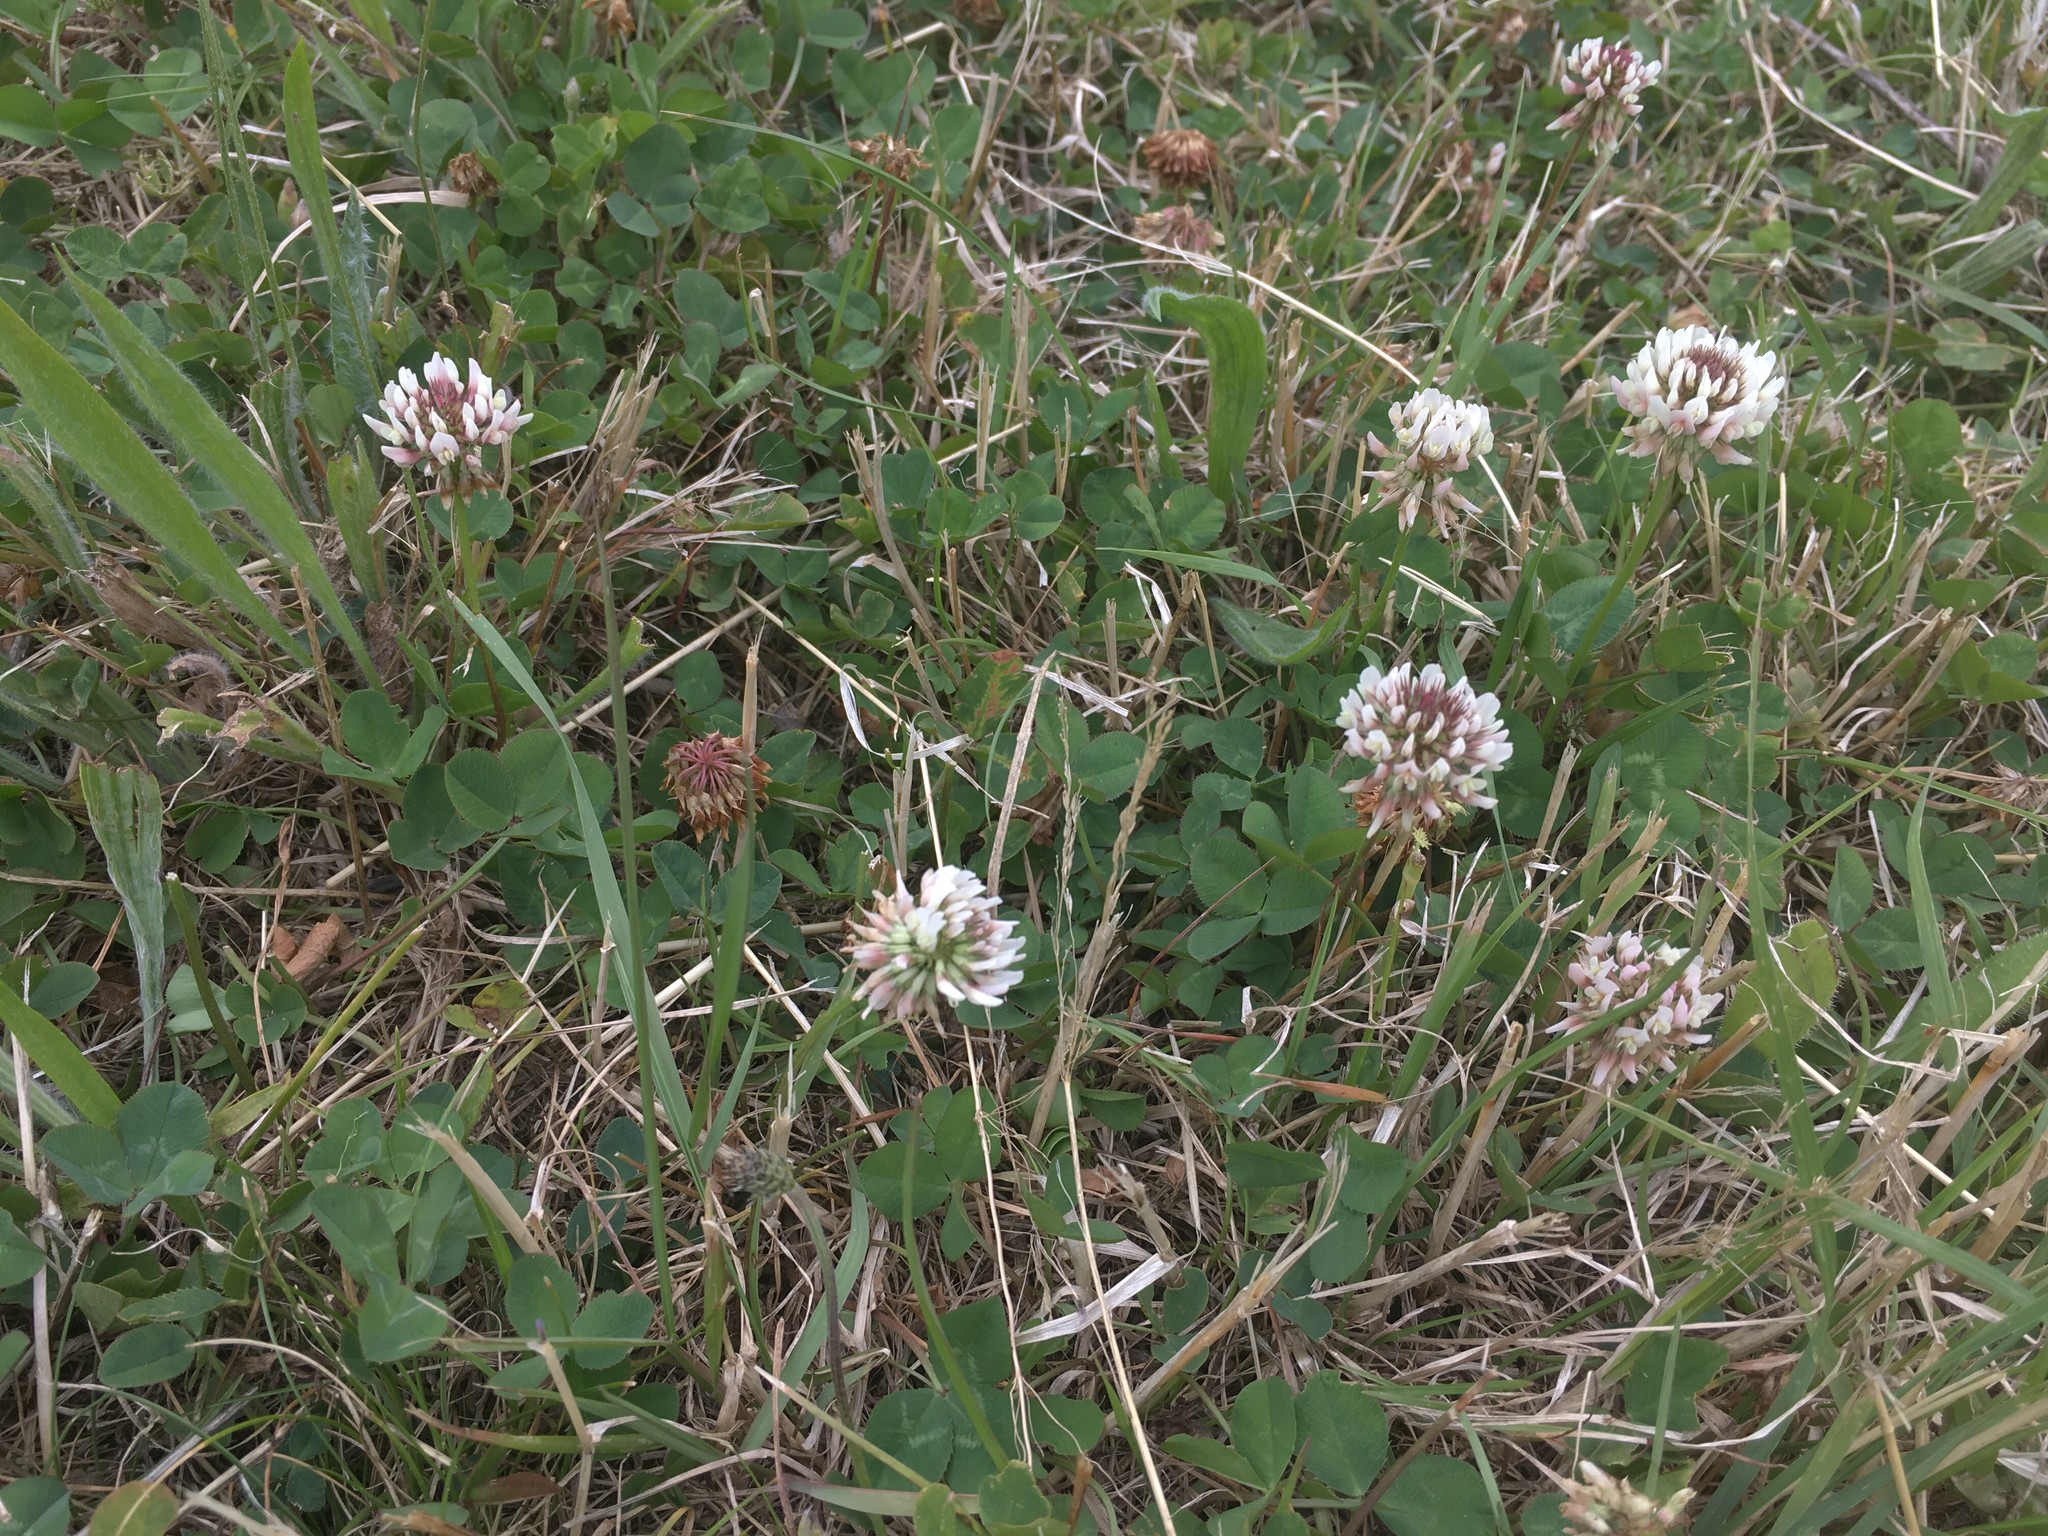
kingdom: Plantae
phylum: Tracheophyta
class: Magnoliopsida
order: Fabales
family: Fabaceae
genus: Trifolium
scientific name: Trifolium repens
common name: White clover
